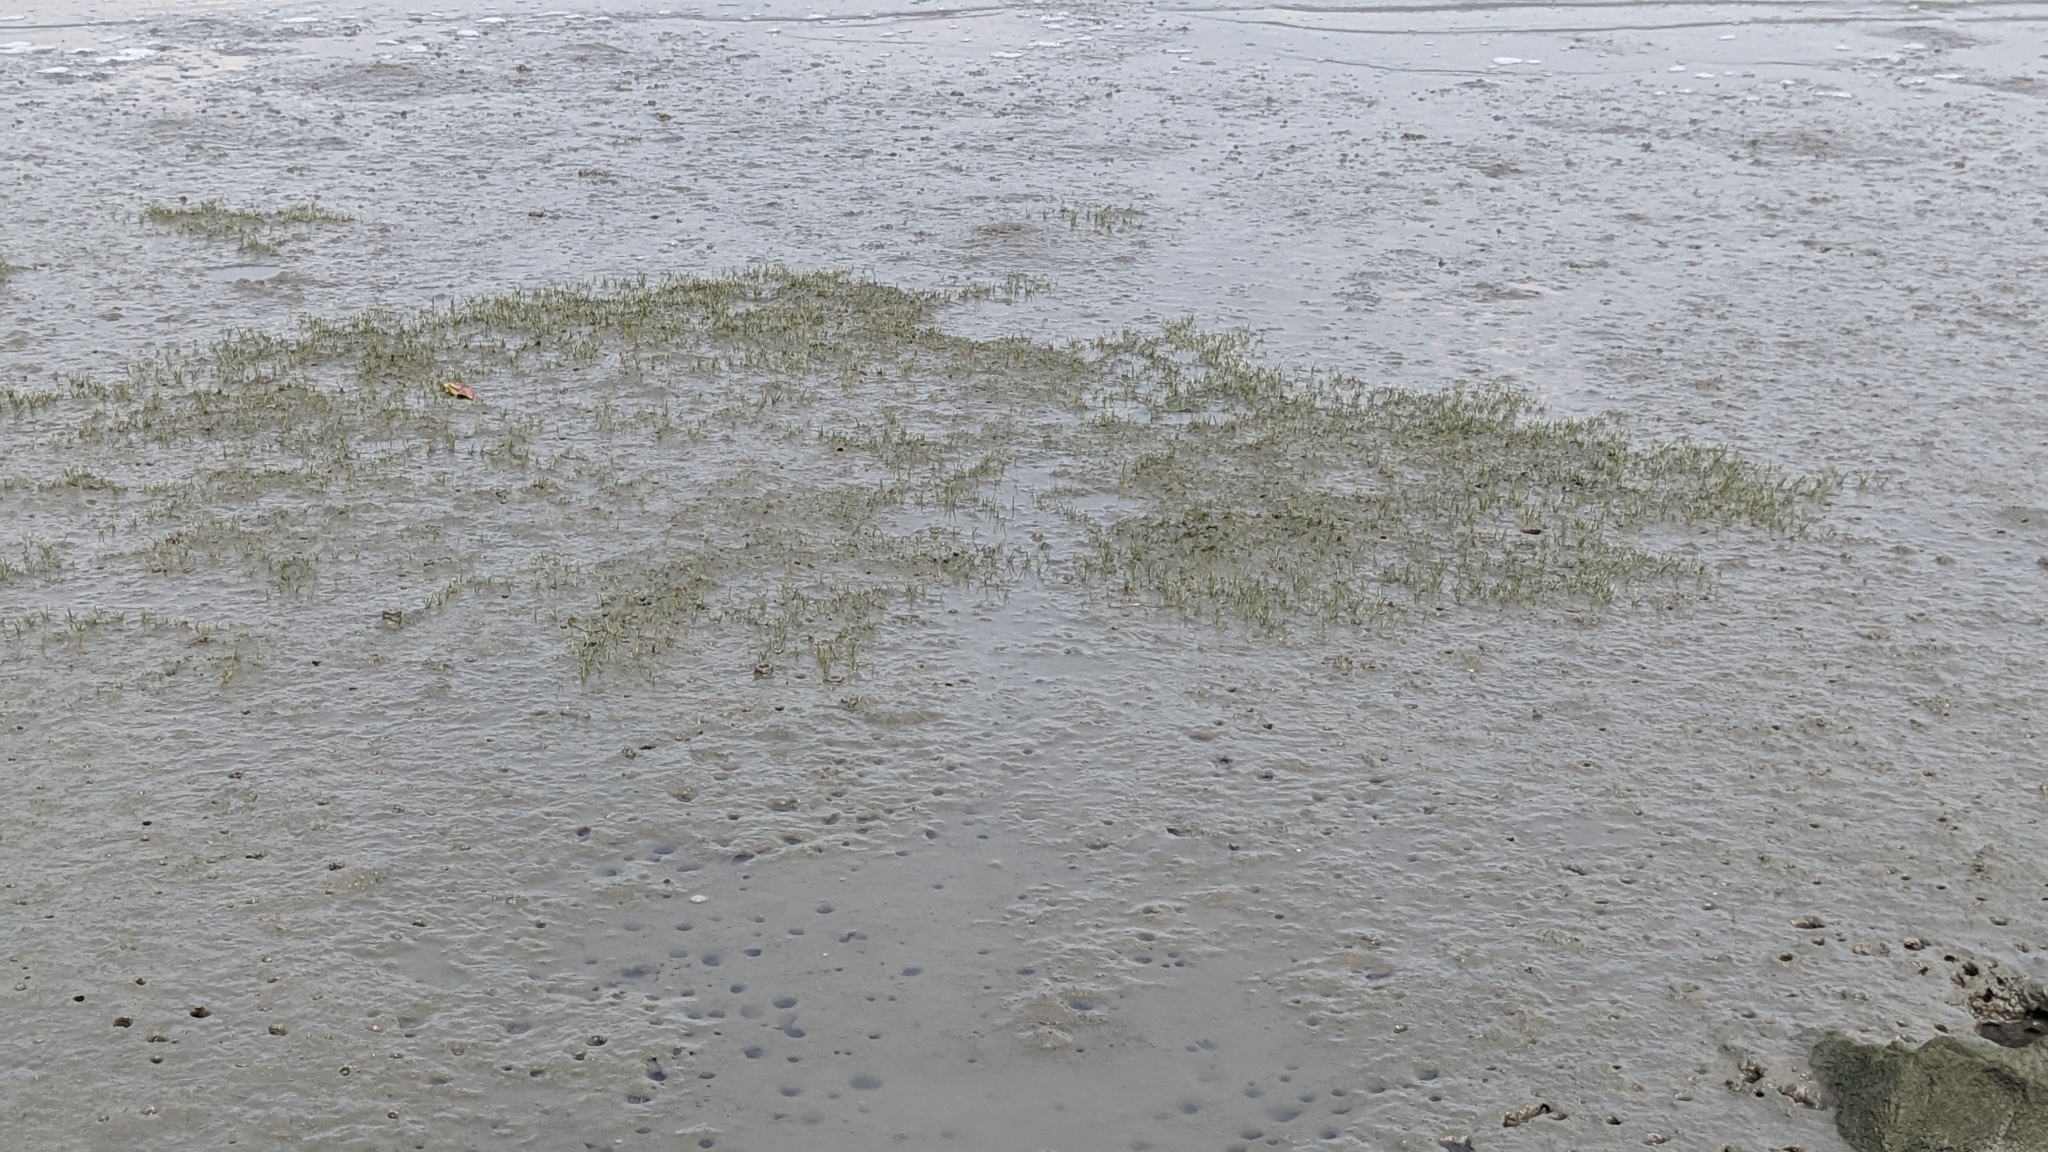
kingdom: Plantae
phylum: Tracheophyta
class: Liliopsida
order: Poales
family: Cyperaceae
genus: Eleocharis
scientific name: Eleocharis parvula
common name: Dwarf spike-rush
